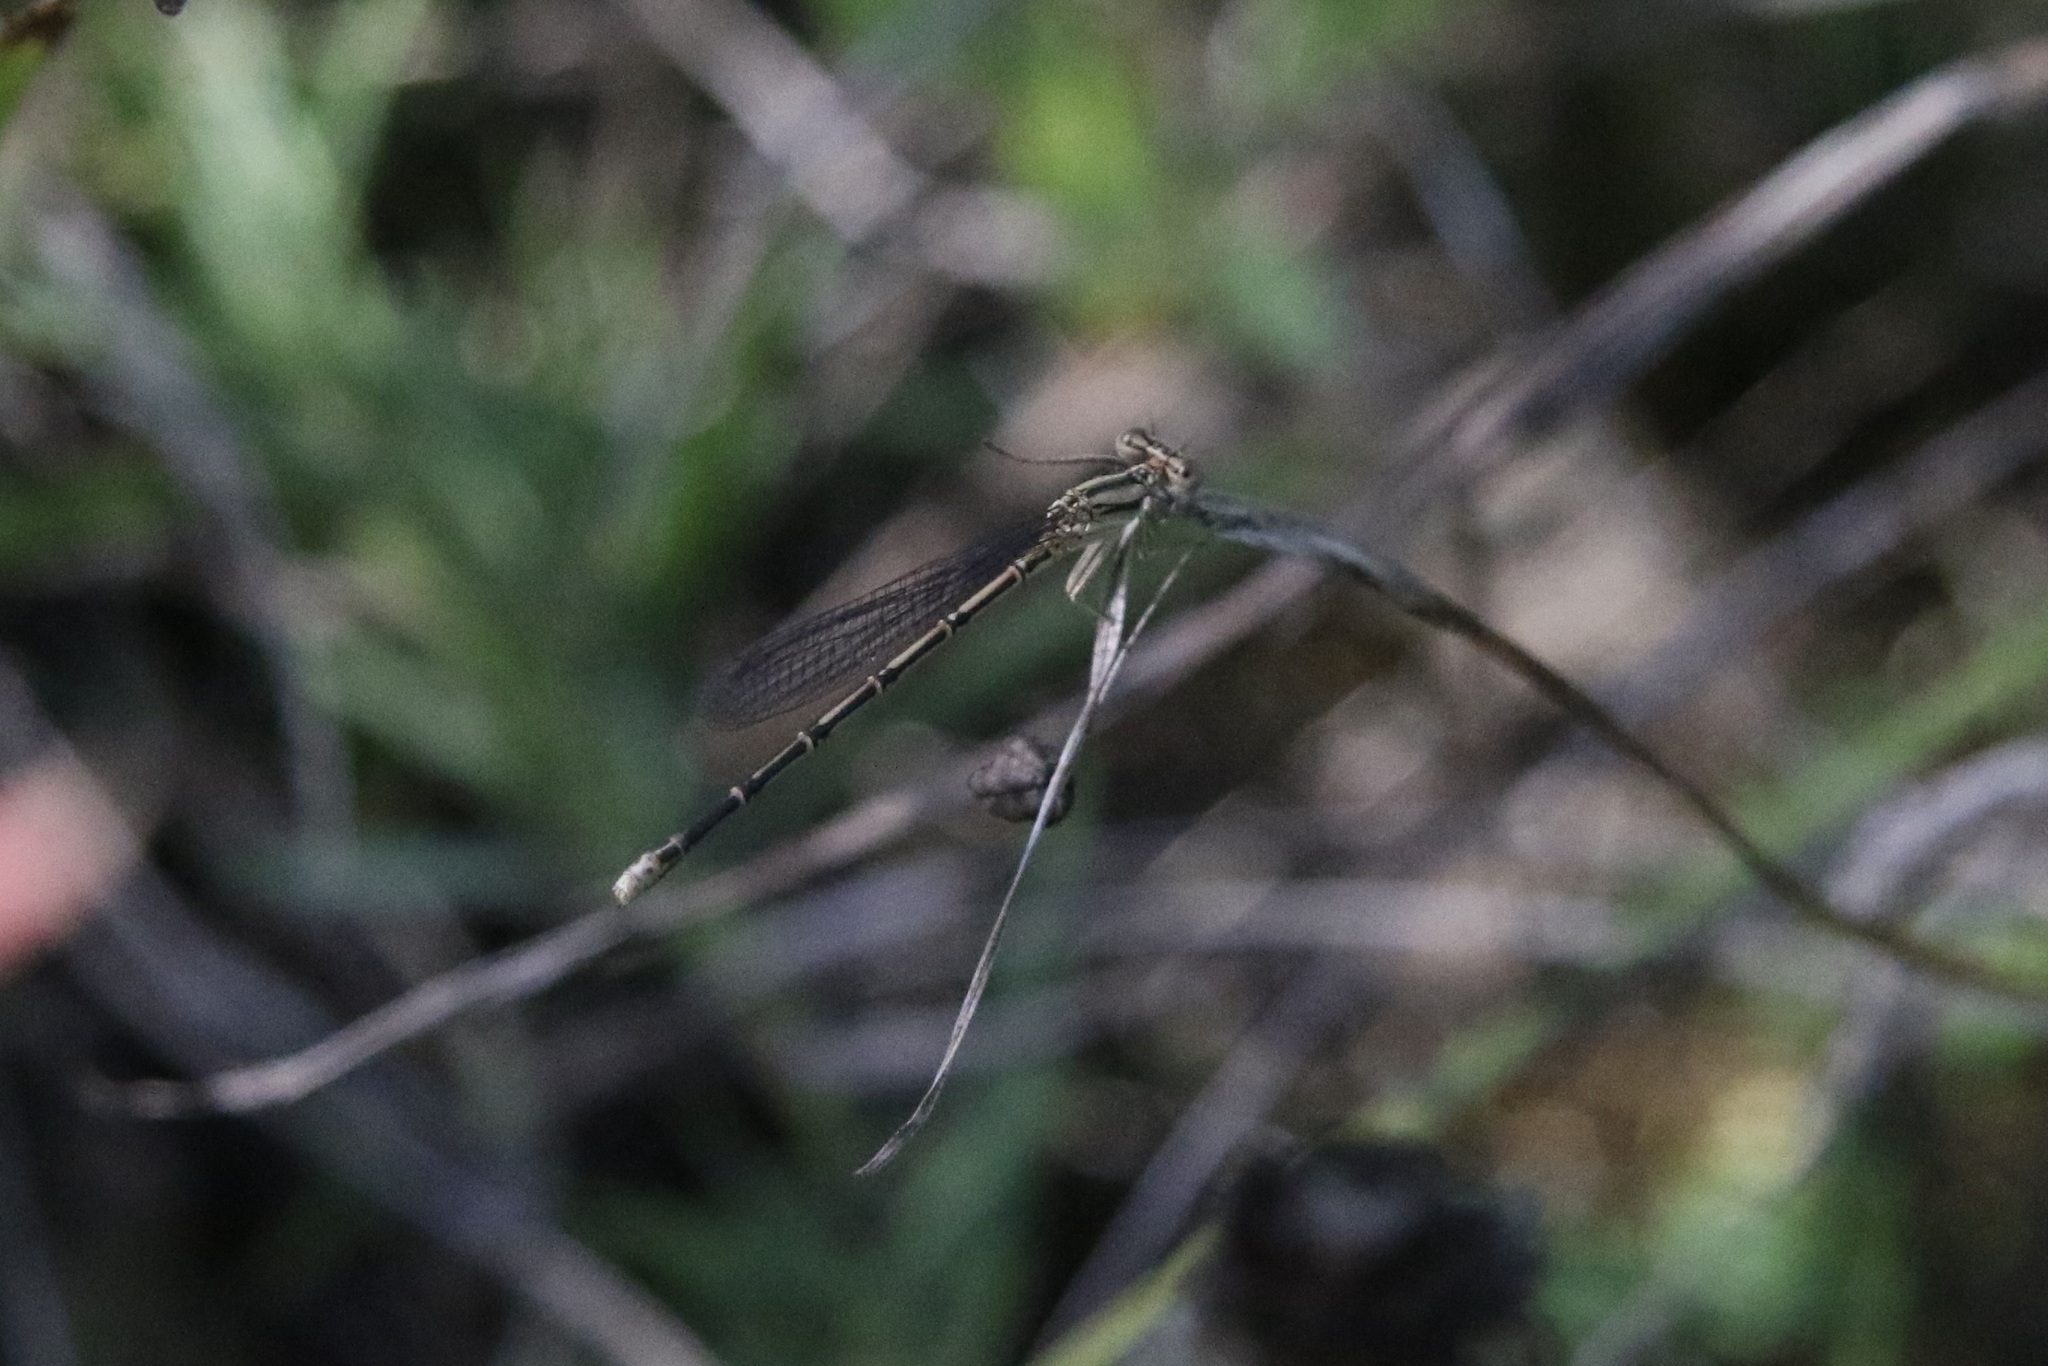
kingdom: Animalia
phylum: Arthropoda
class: Insecta
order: Odonata
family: Coenagrionidae
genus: Argia
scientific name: Argia fumipennis
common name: Variable dancer
